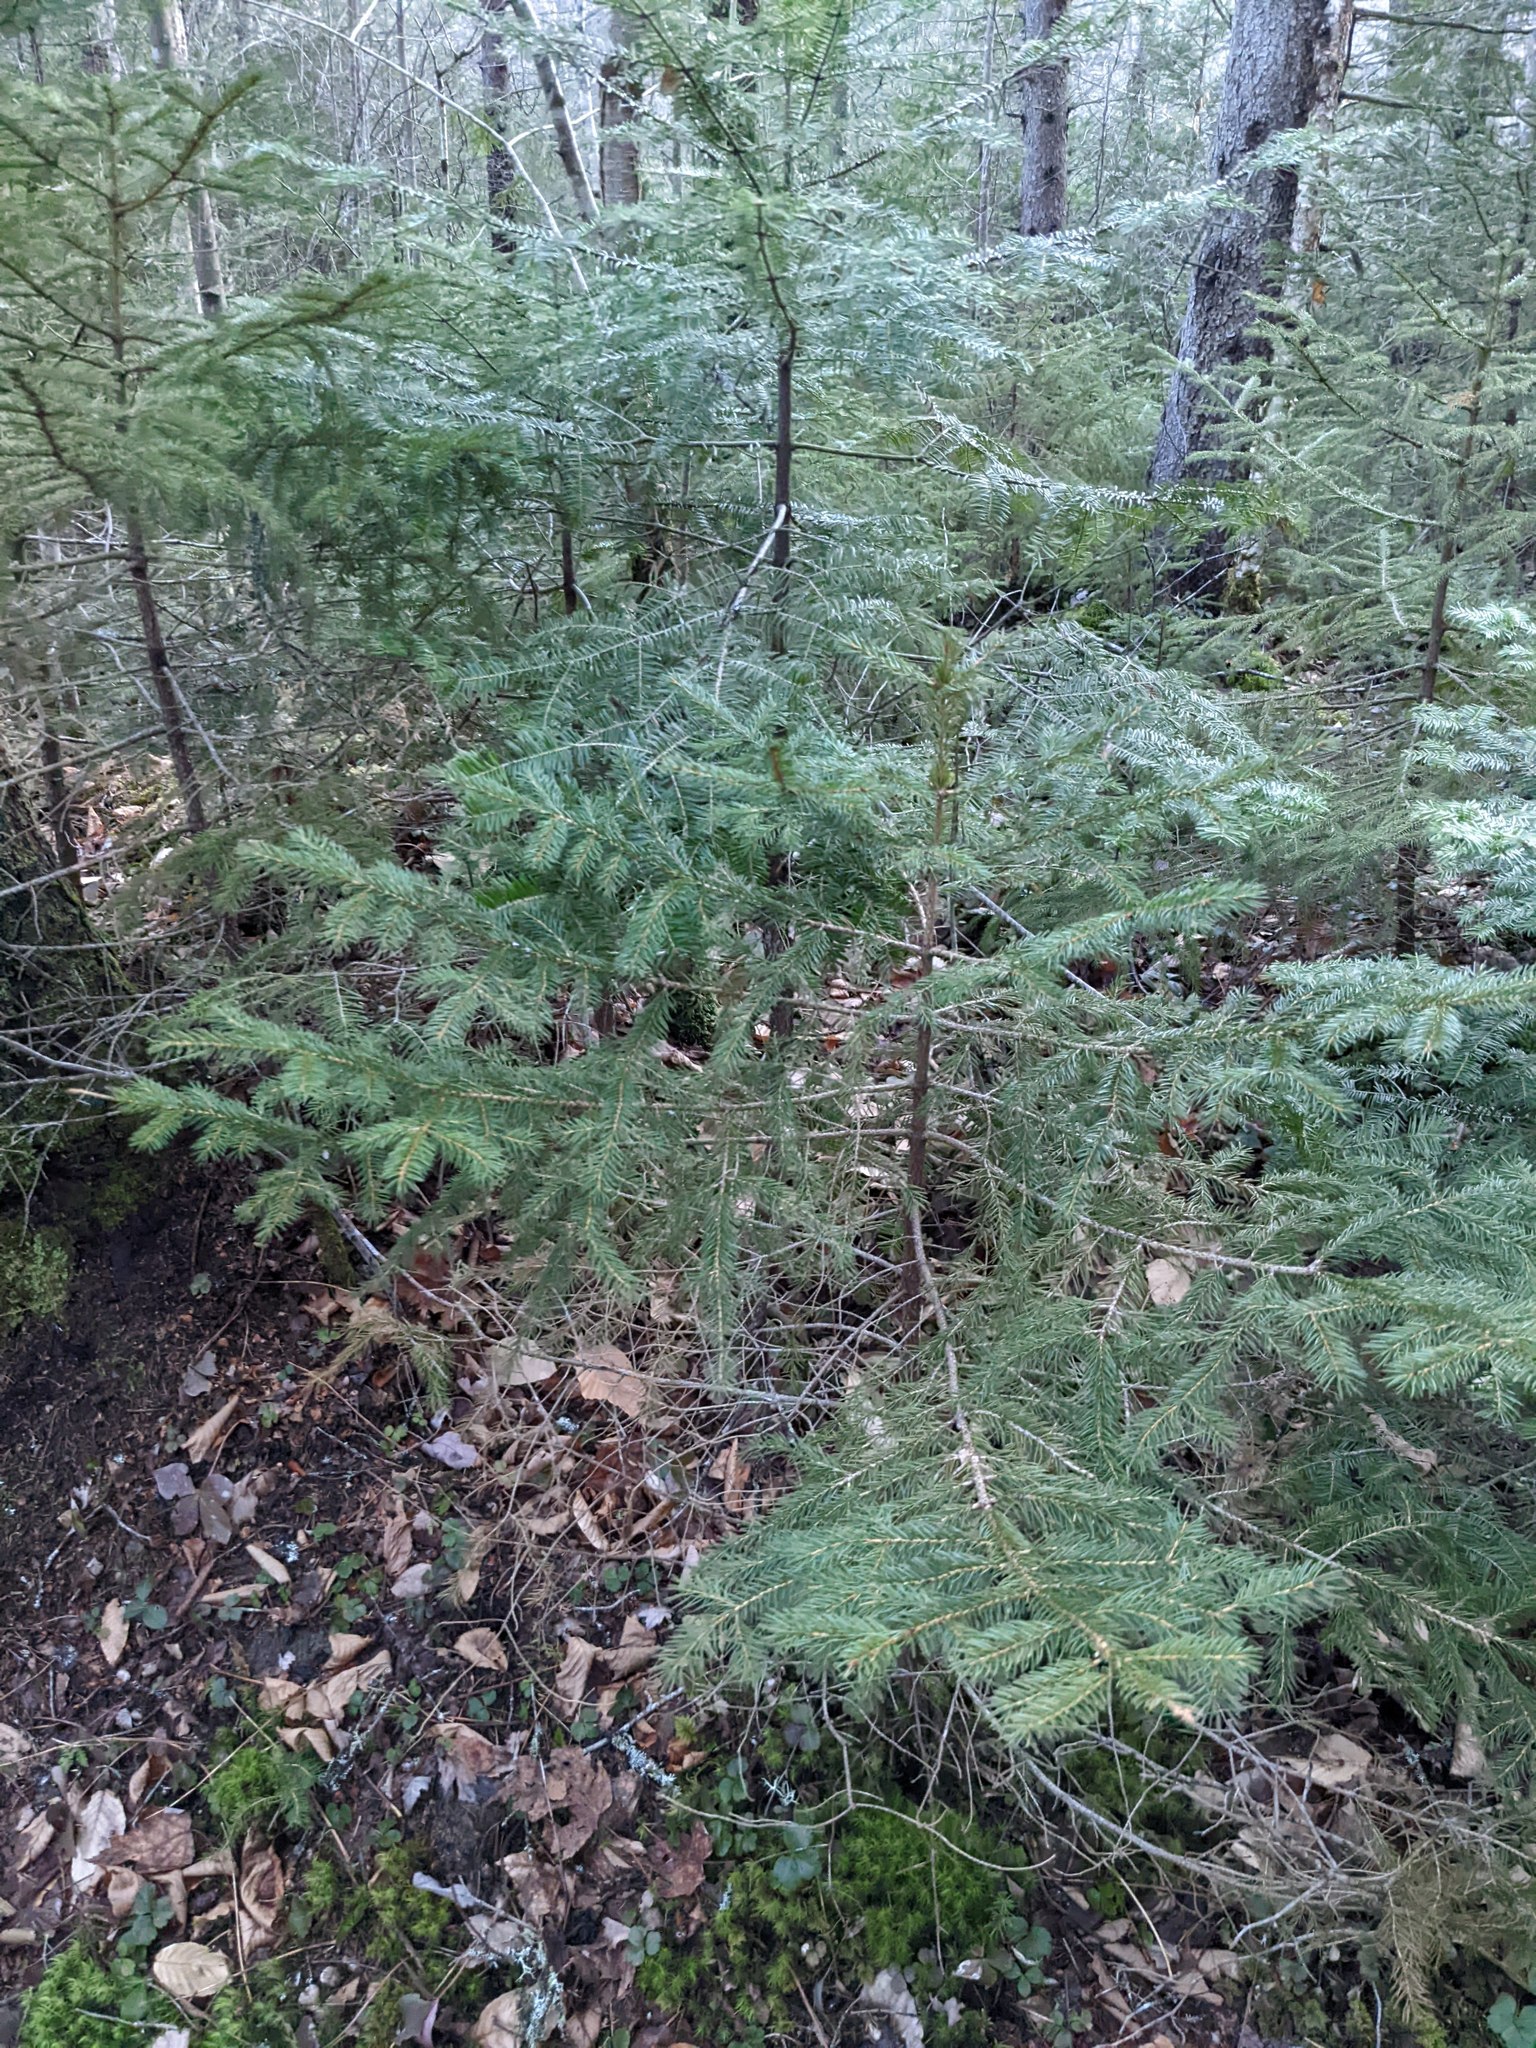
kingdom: Plantae
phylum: Tracheophyta
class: Pinopsida
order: Pinales
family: Pinaceae
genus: Picea
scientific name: Picea rubens
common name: Red spruce
